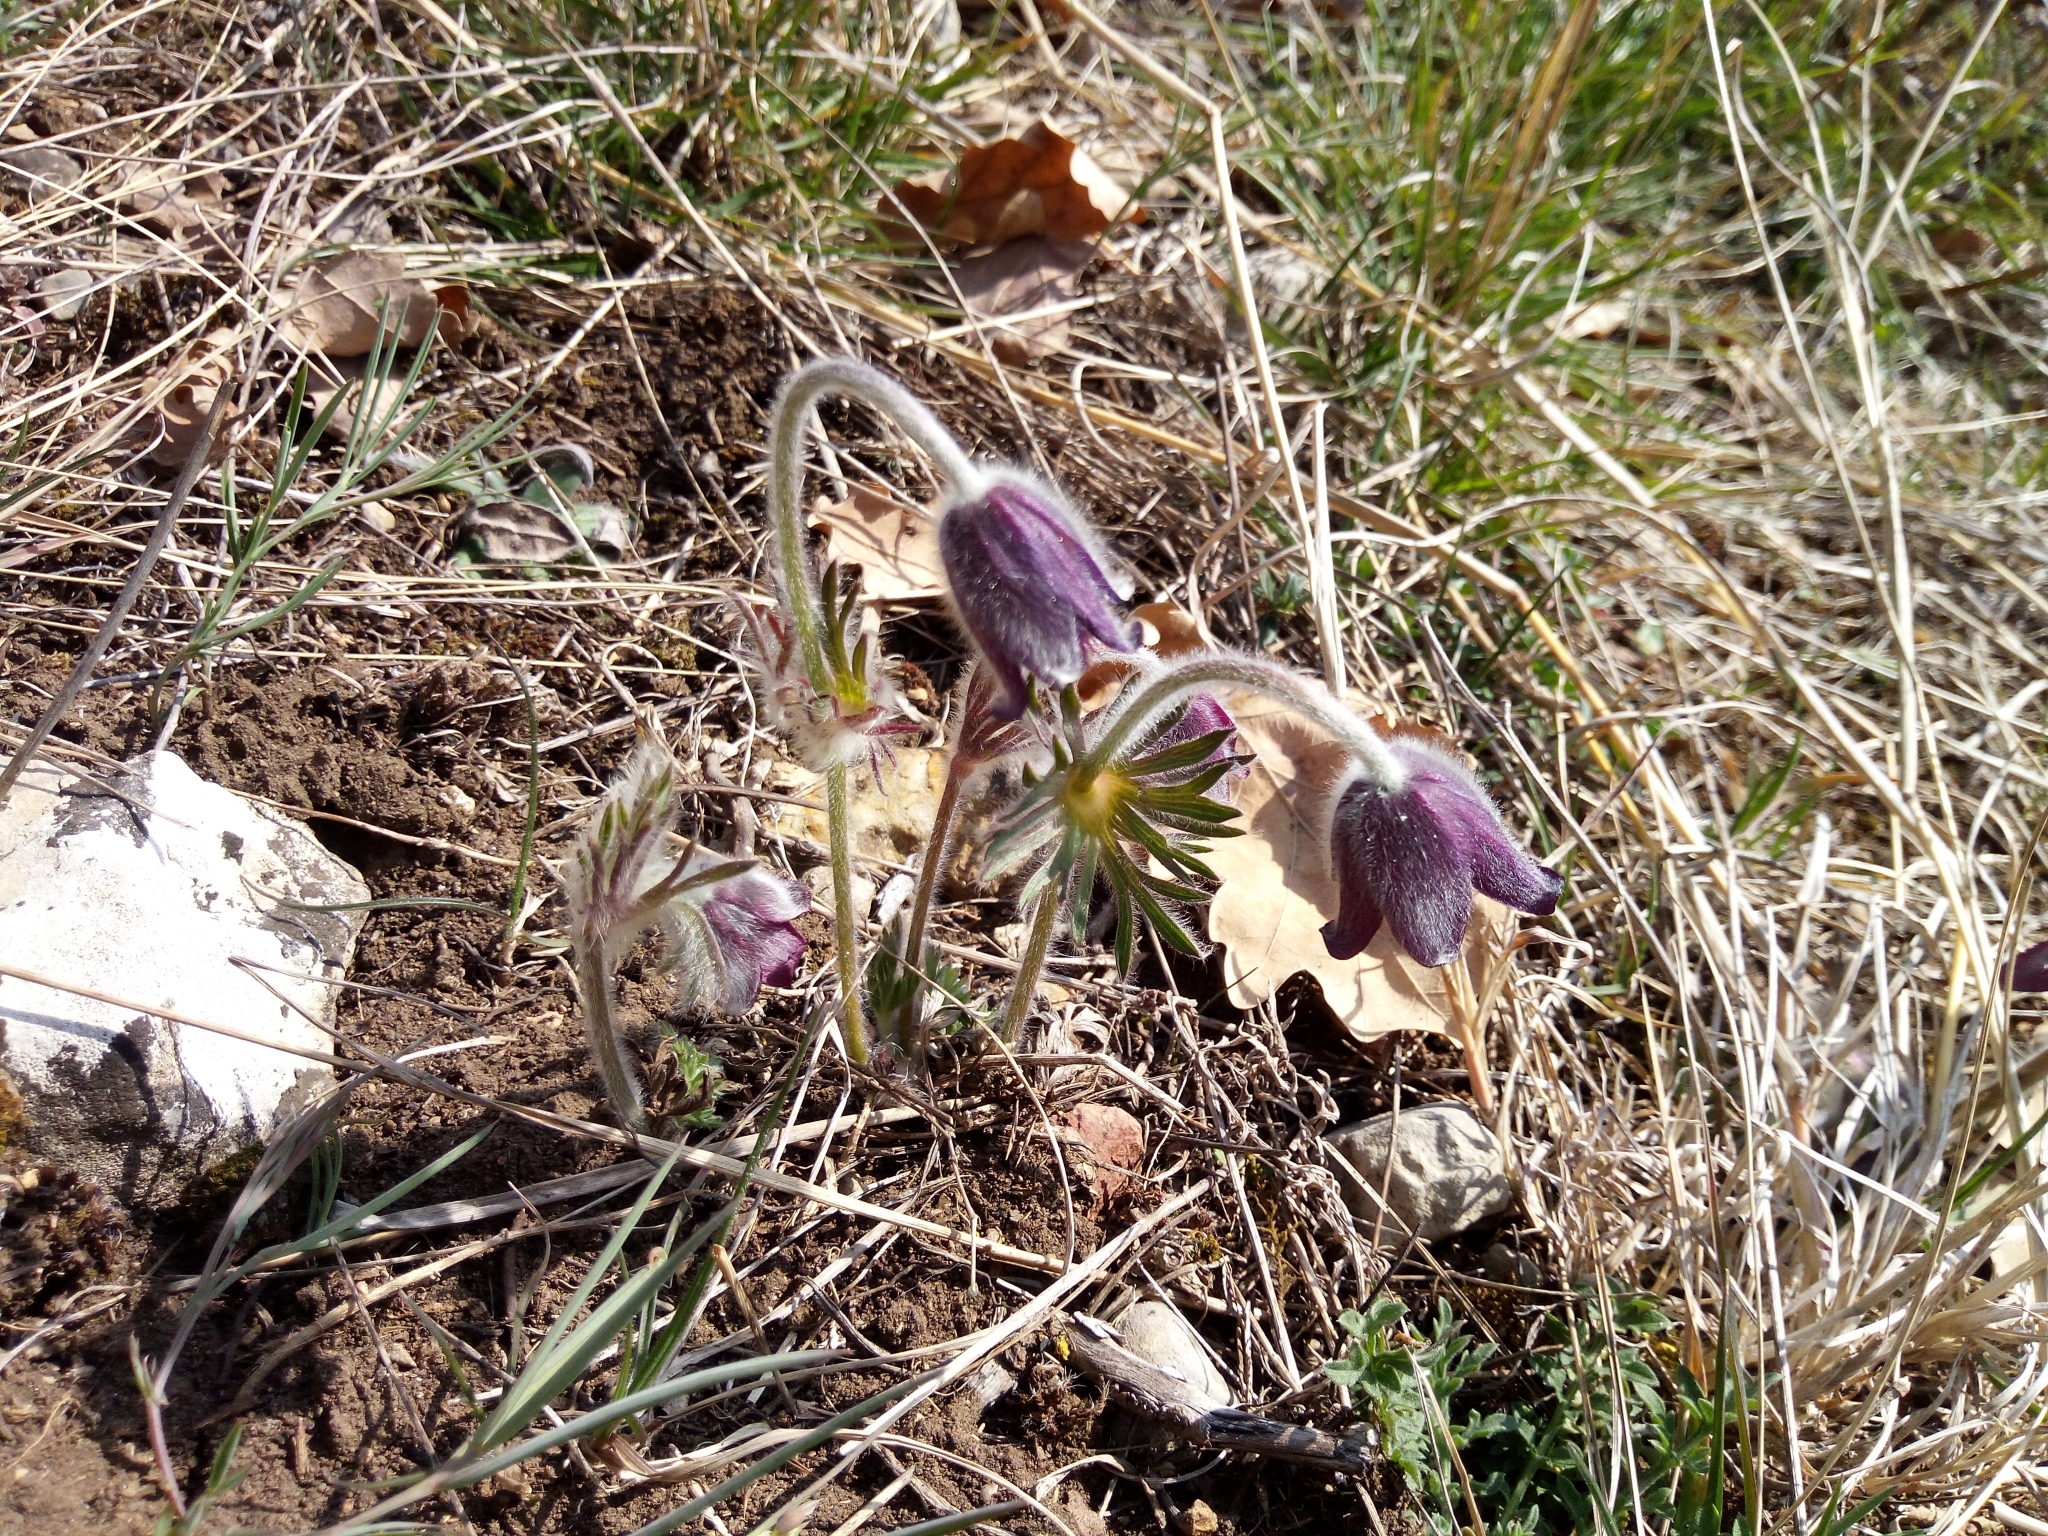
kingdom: Plantae
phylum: Tracheophyta
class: Magnoliopsida
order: Ranunculales
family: Ranunculaceae
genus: Pulsatilla
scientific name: Pulsatilla pratensis
